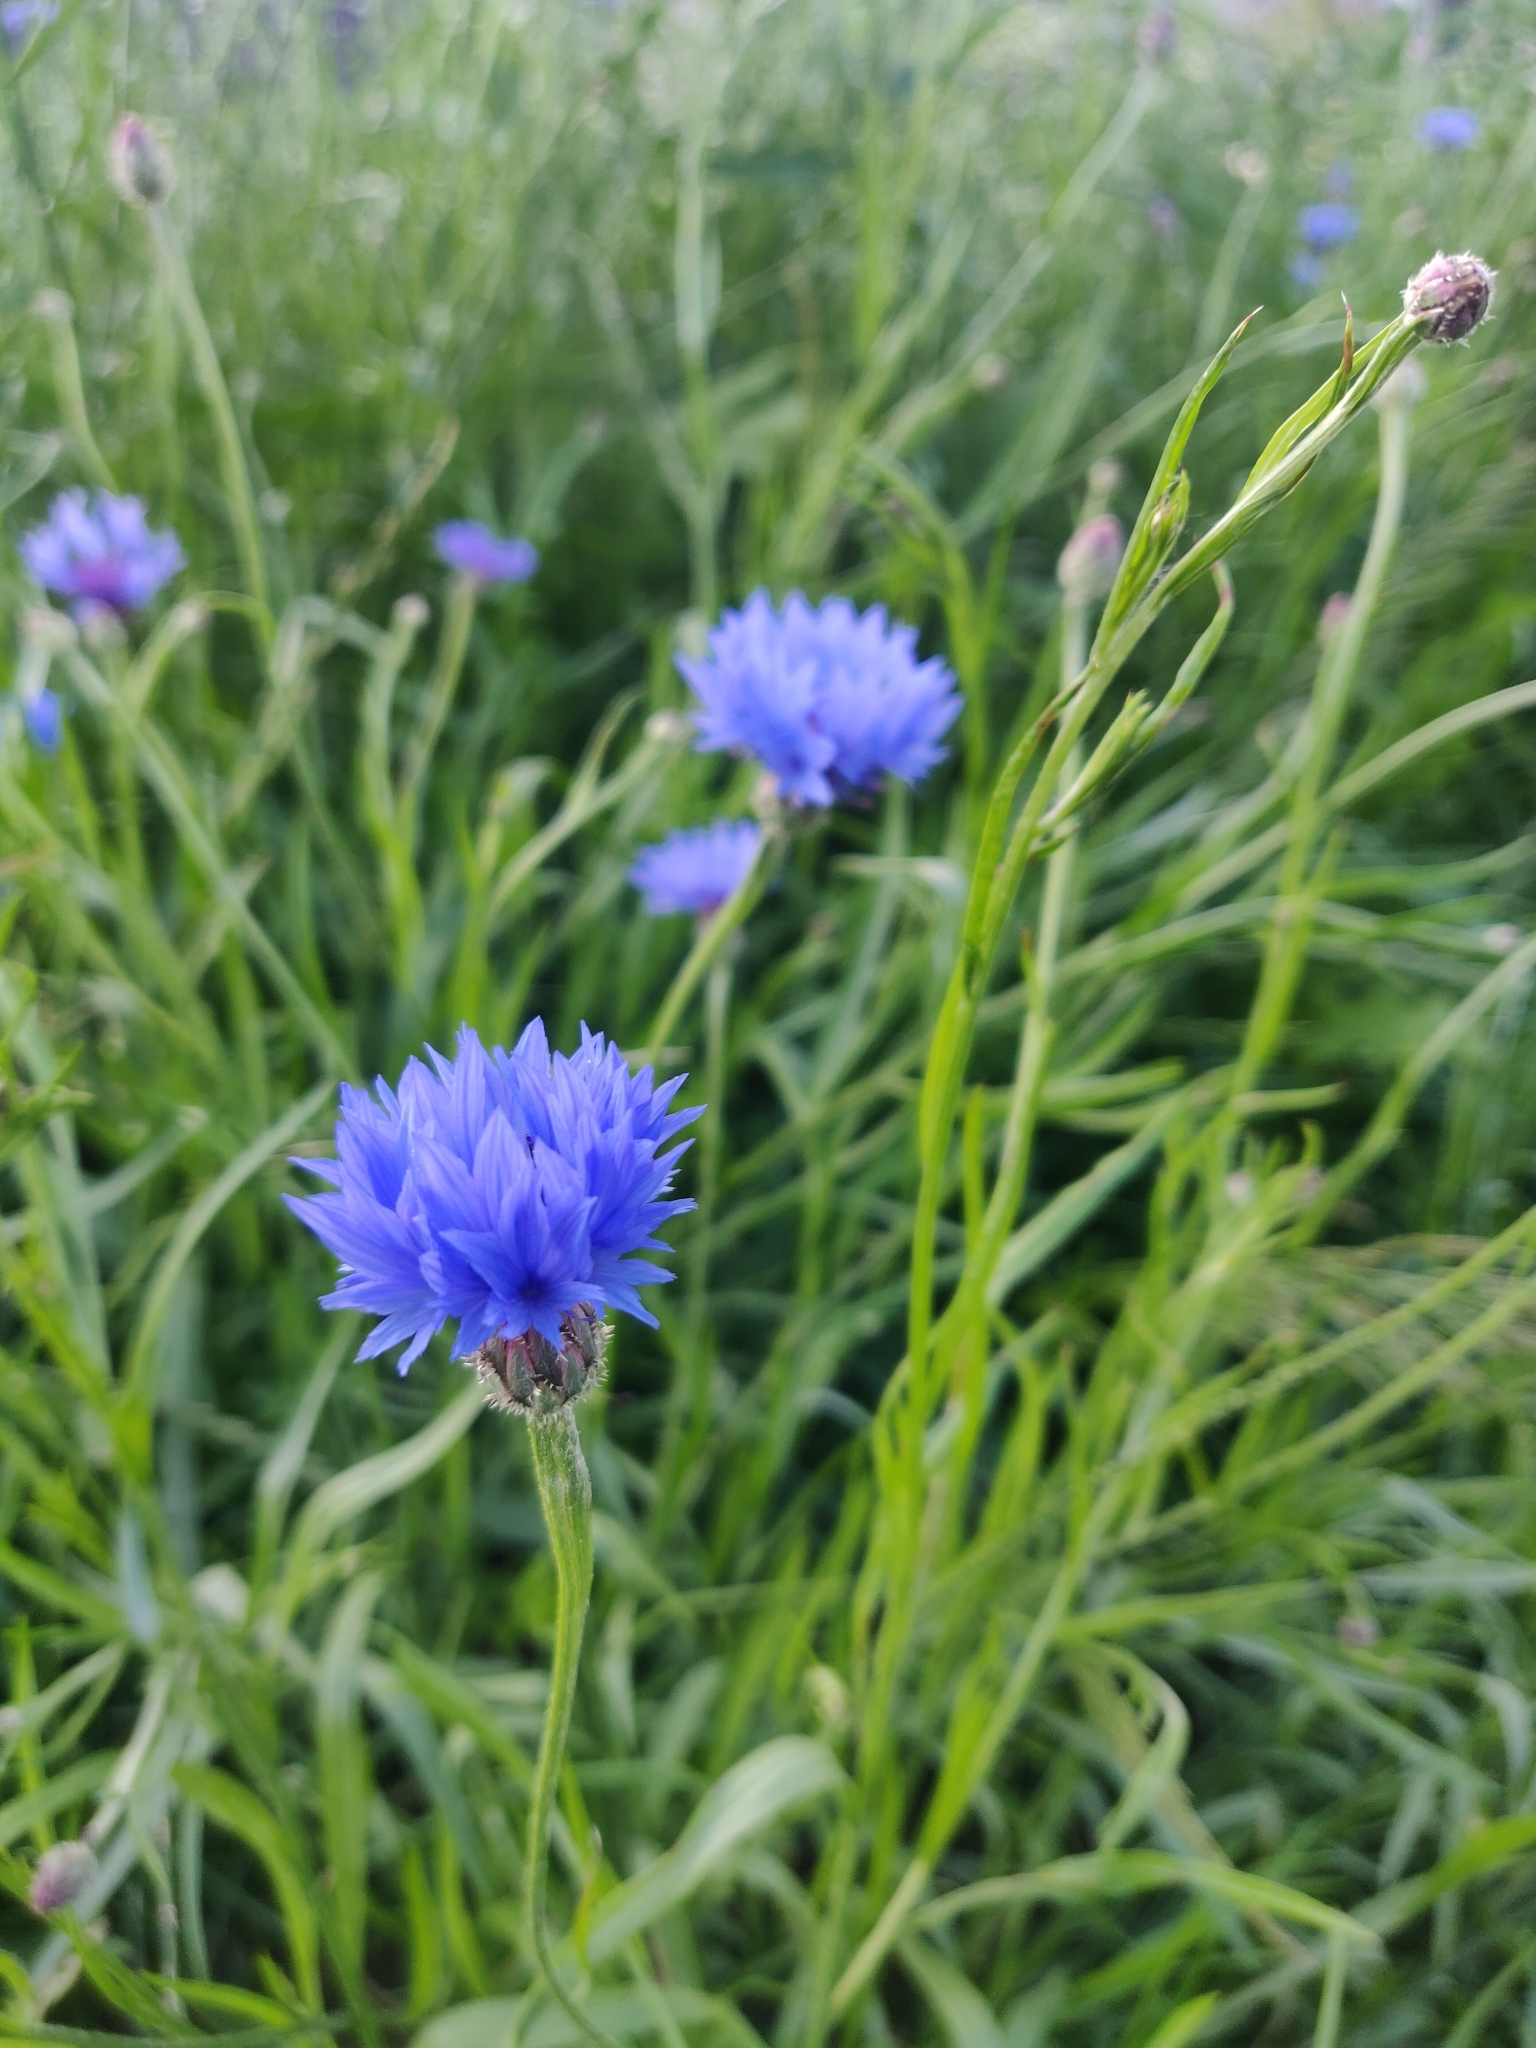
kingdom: Plantae
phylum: Tracheophyta
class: Magnoliopsida
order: Asterales
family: Asteraceae
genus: Centaurea
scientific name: Centaurea cyanus
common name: Cornflower
